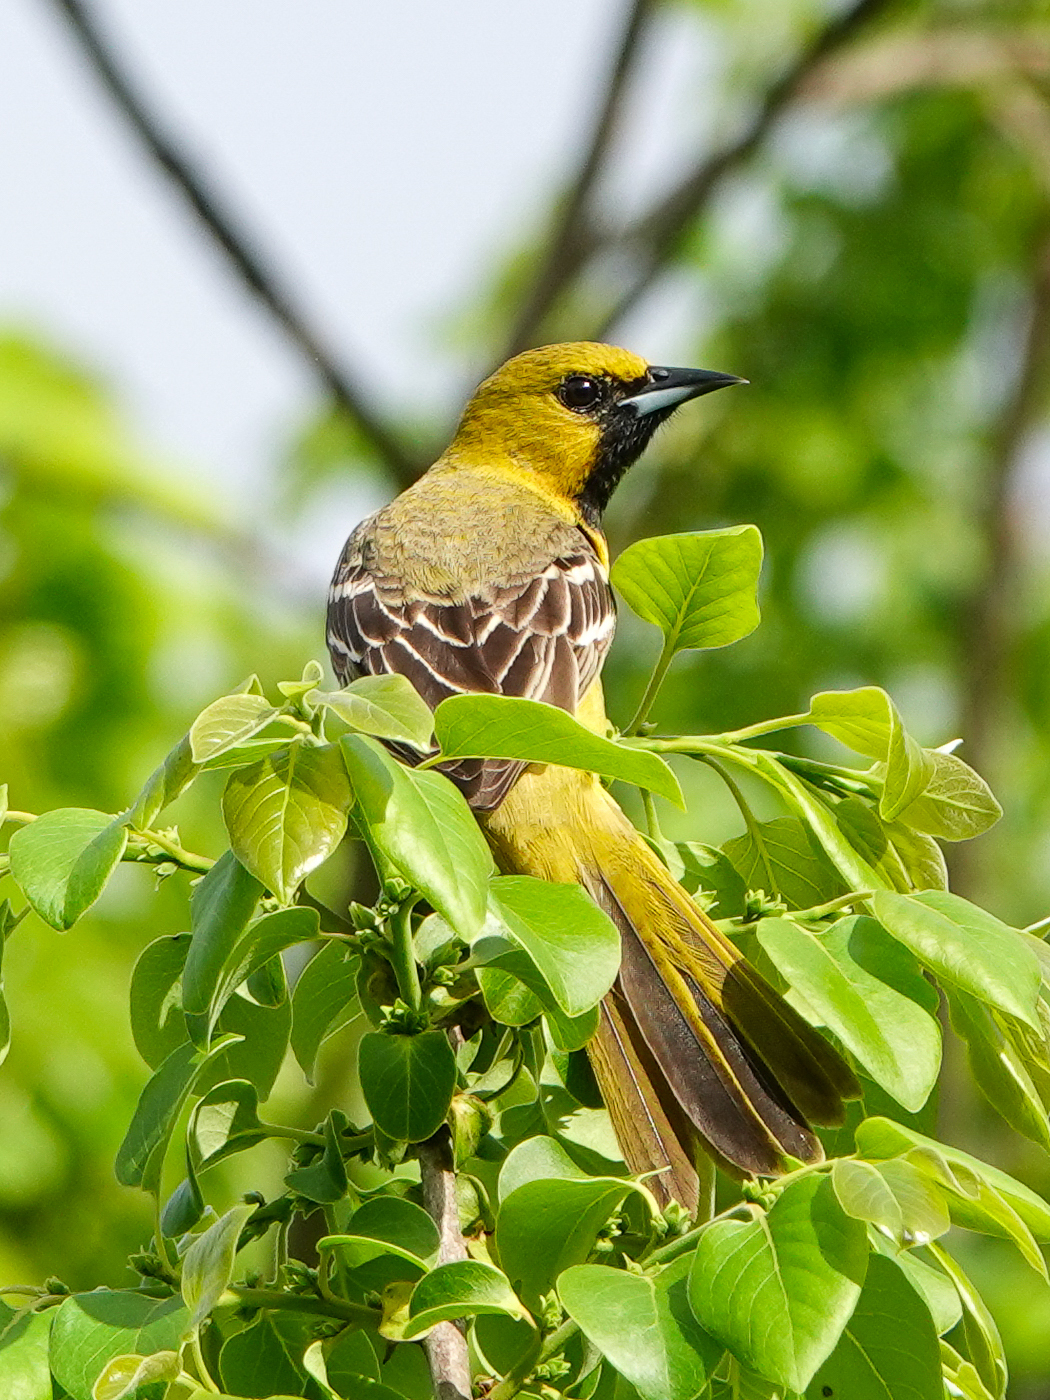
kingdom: Animalia
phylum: Chordata
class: Aves
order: Passeriformes
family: Icteridae
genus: Icterus
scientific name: Icterus spurius
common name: Orchard oriole
